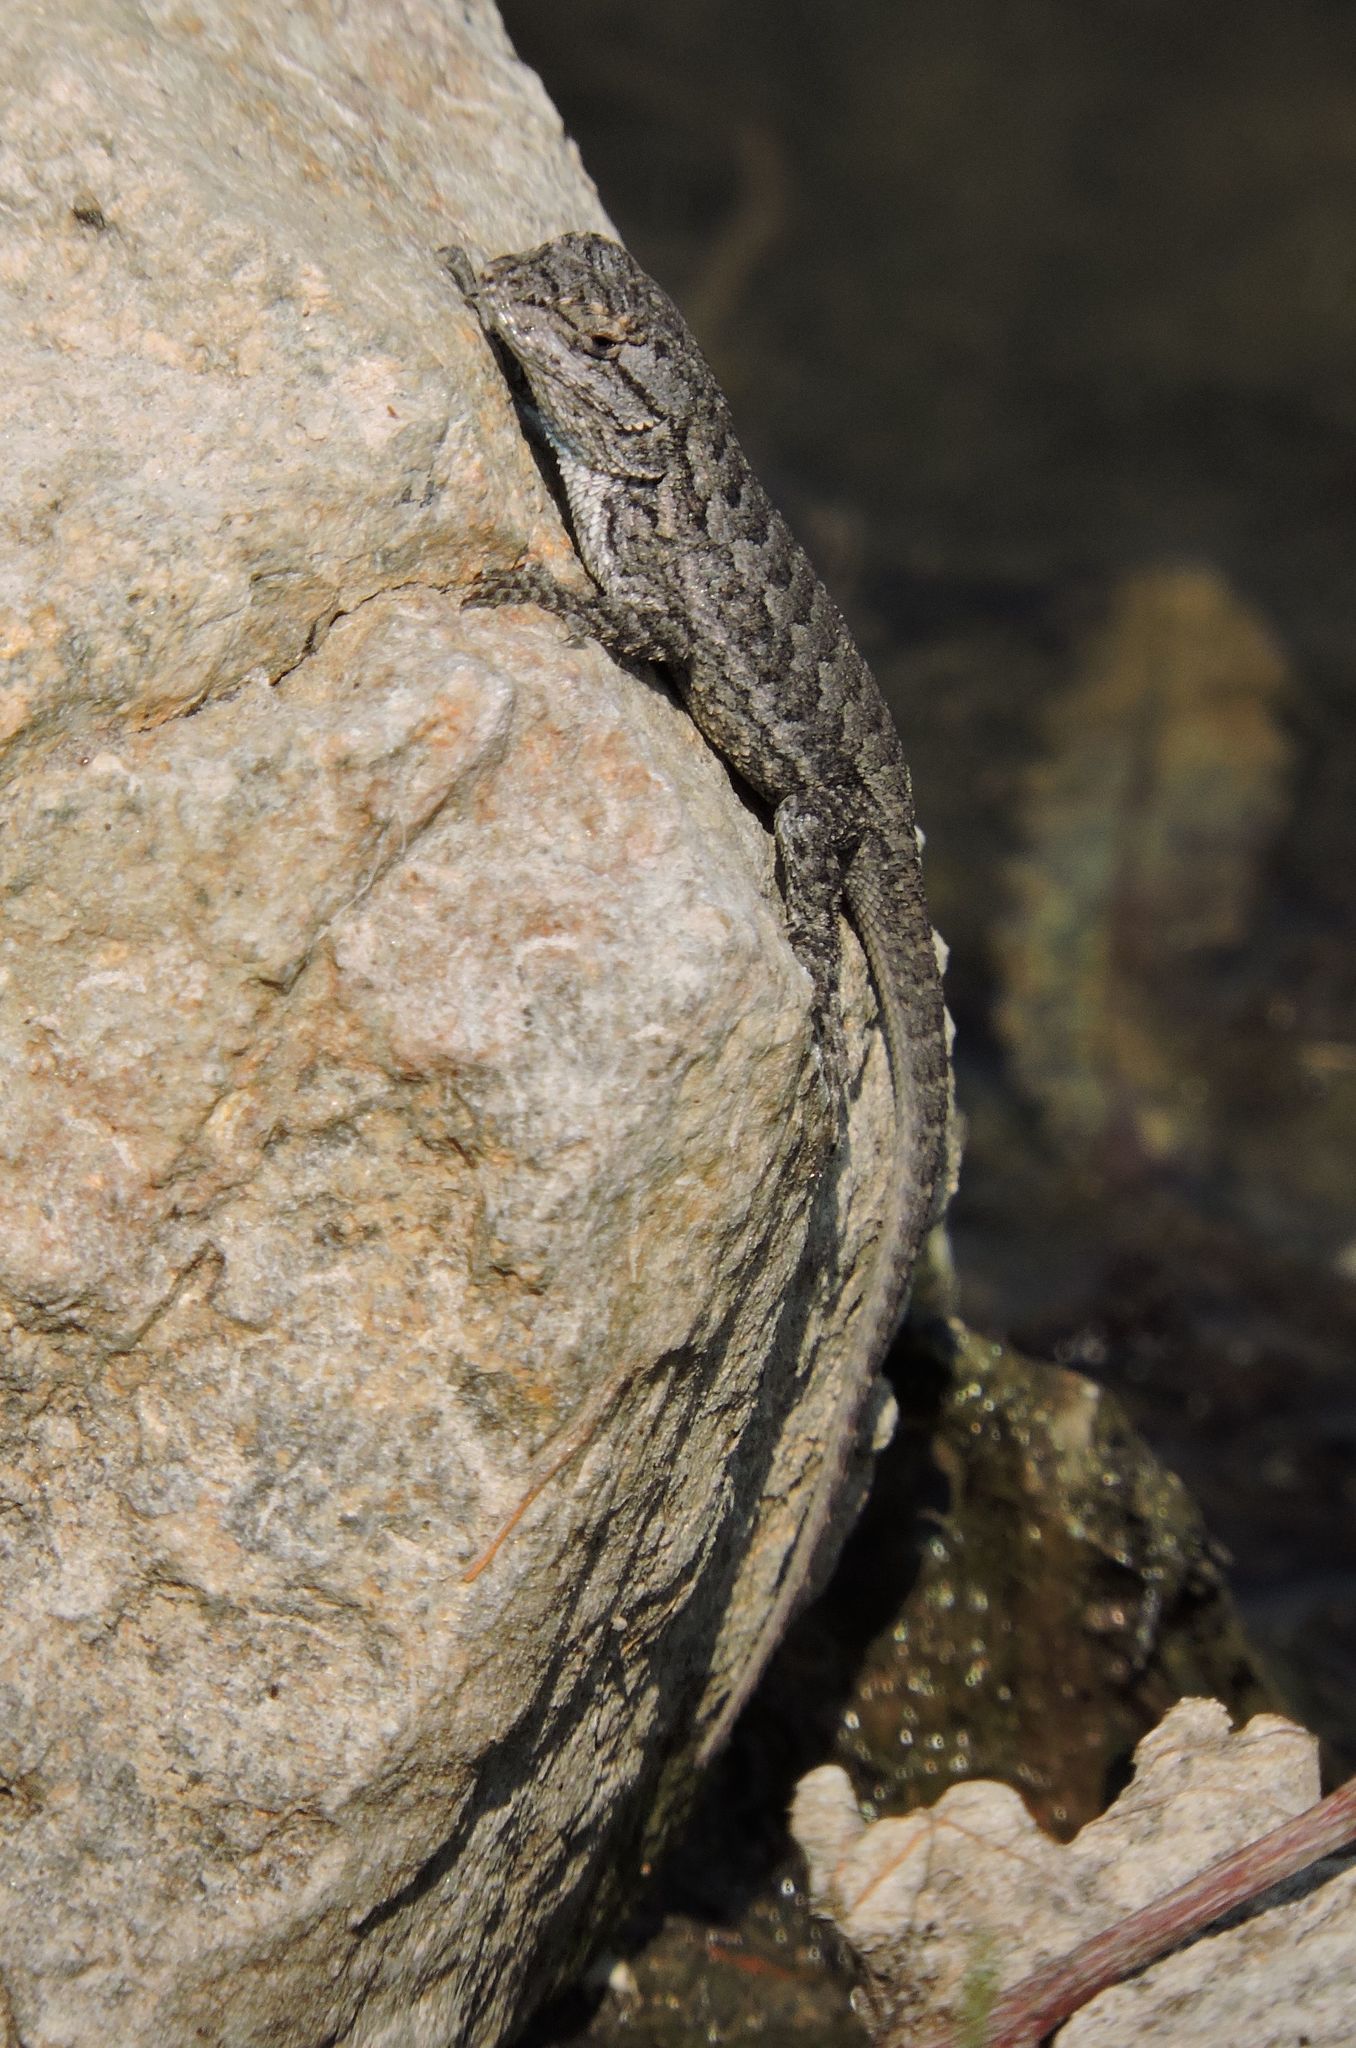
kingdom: Animalia
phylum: Chordata
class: Squamata
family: Phrynosomatidae
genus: Sceloporus
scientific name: Sceloporus occidentalis
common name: Western fence lizard
